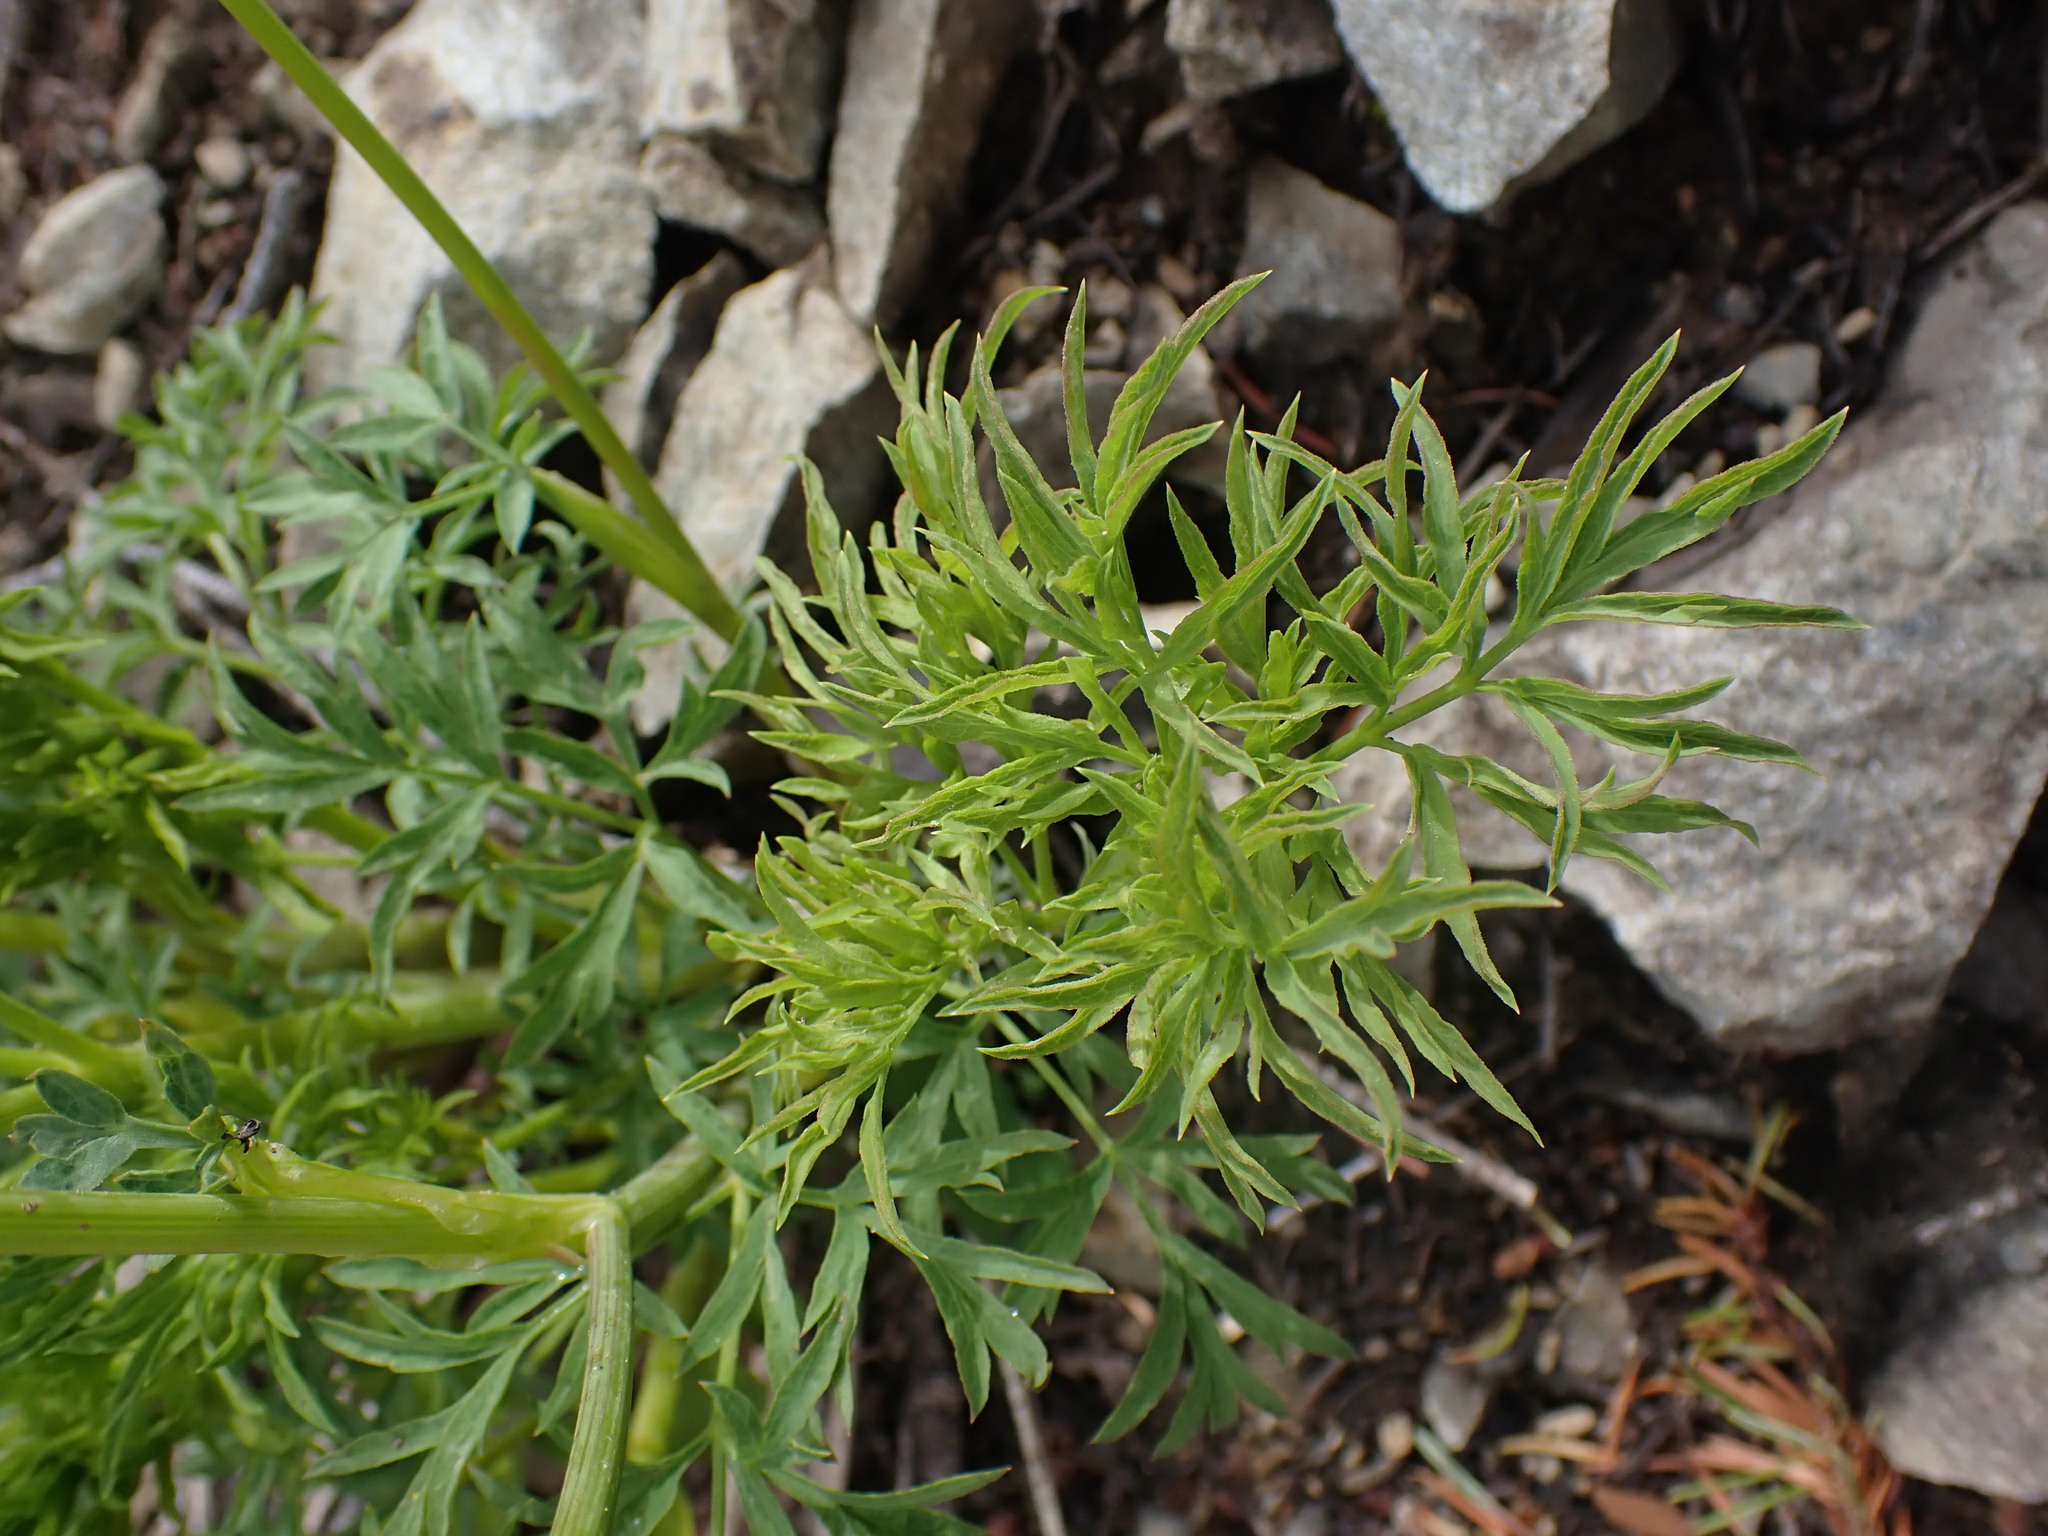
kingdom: Plantae
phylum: Tracheophyta
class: Magnoliopsida
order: Apiales
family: Apiaceae
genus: Lomatium
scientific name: Lomatium brandegeei
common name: Brandegee's desert-parsley
